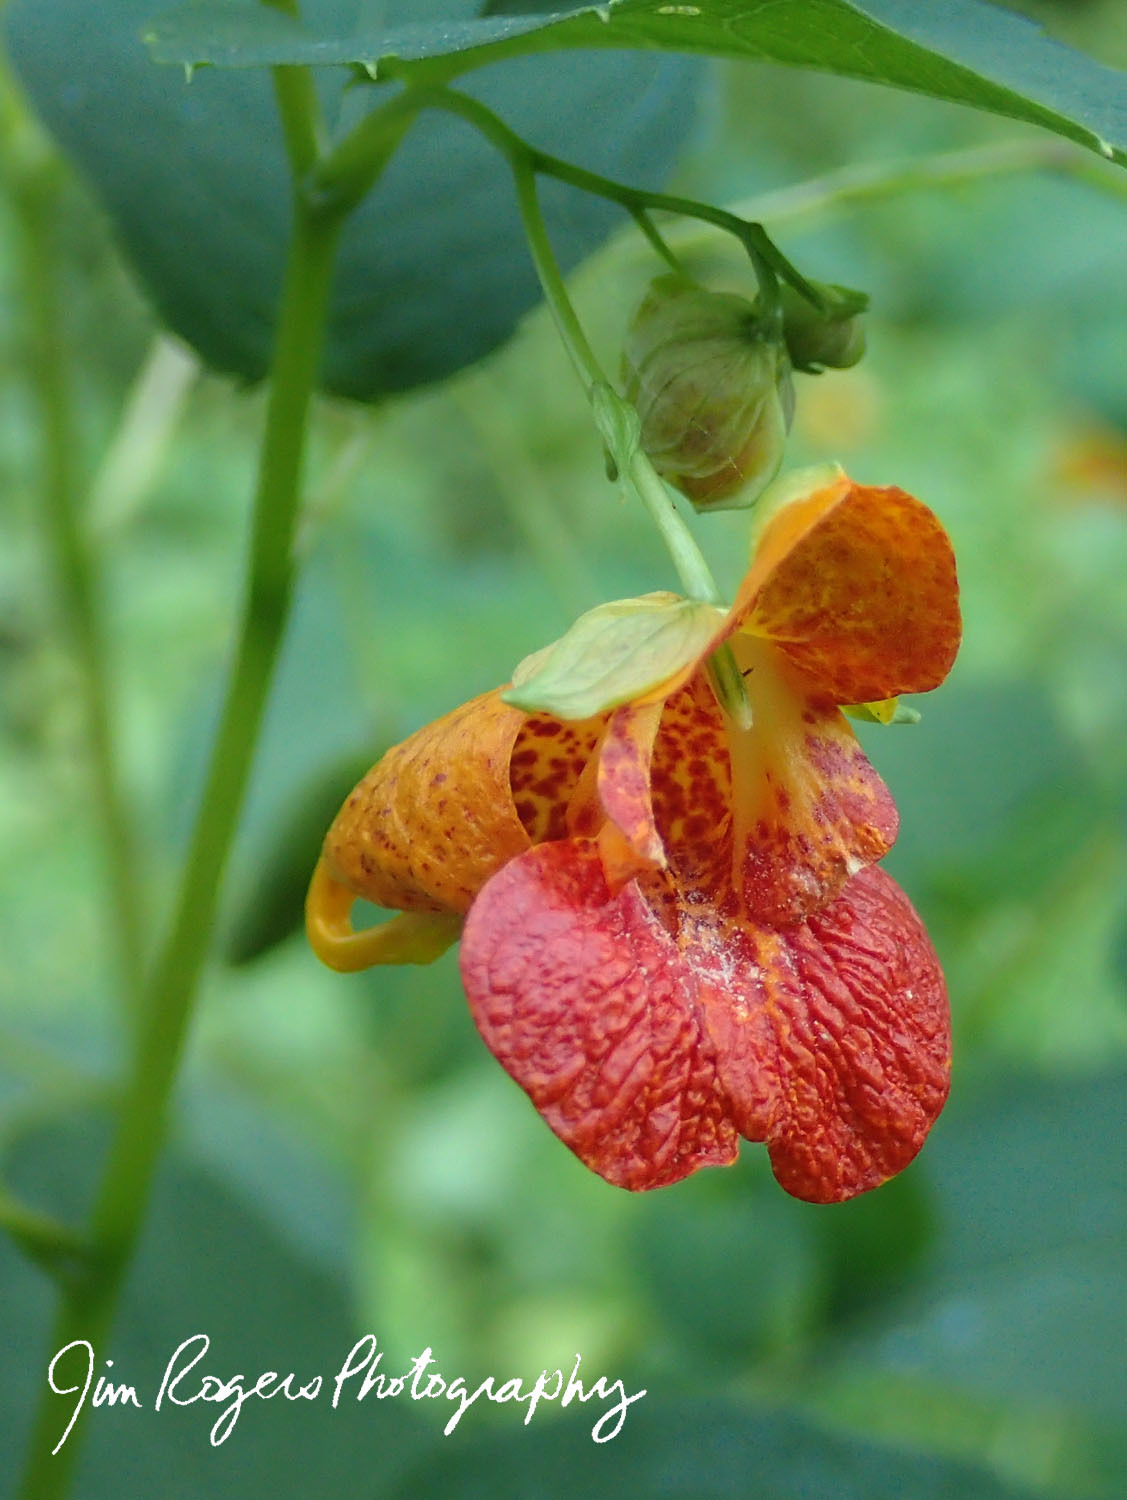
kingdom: Plantae
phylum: Tracheophyta
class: Magnoliopsida
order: Ericales
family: Balsaminaceae
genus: Impatiens
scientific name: Impatiens capensis
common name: Orange balsam
